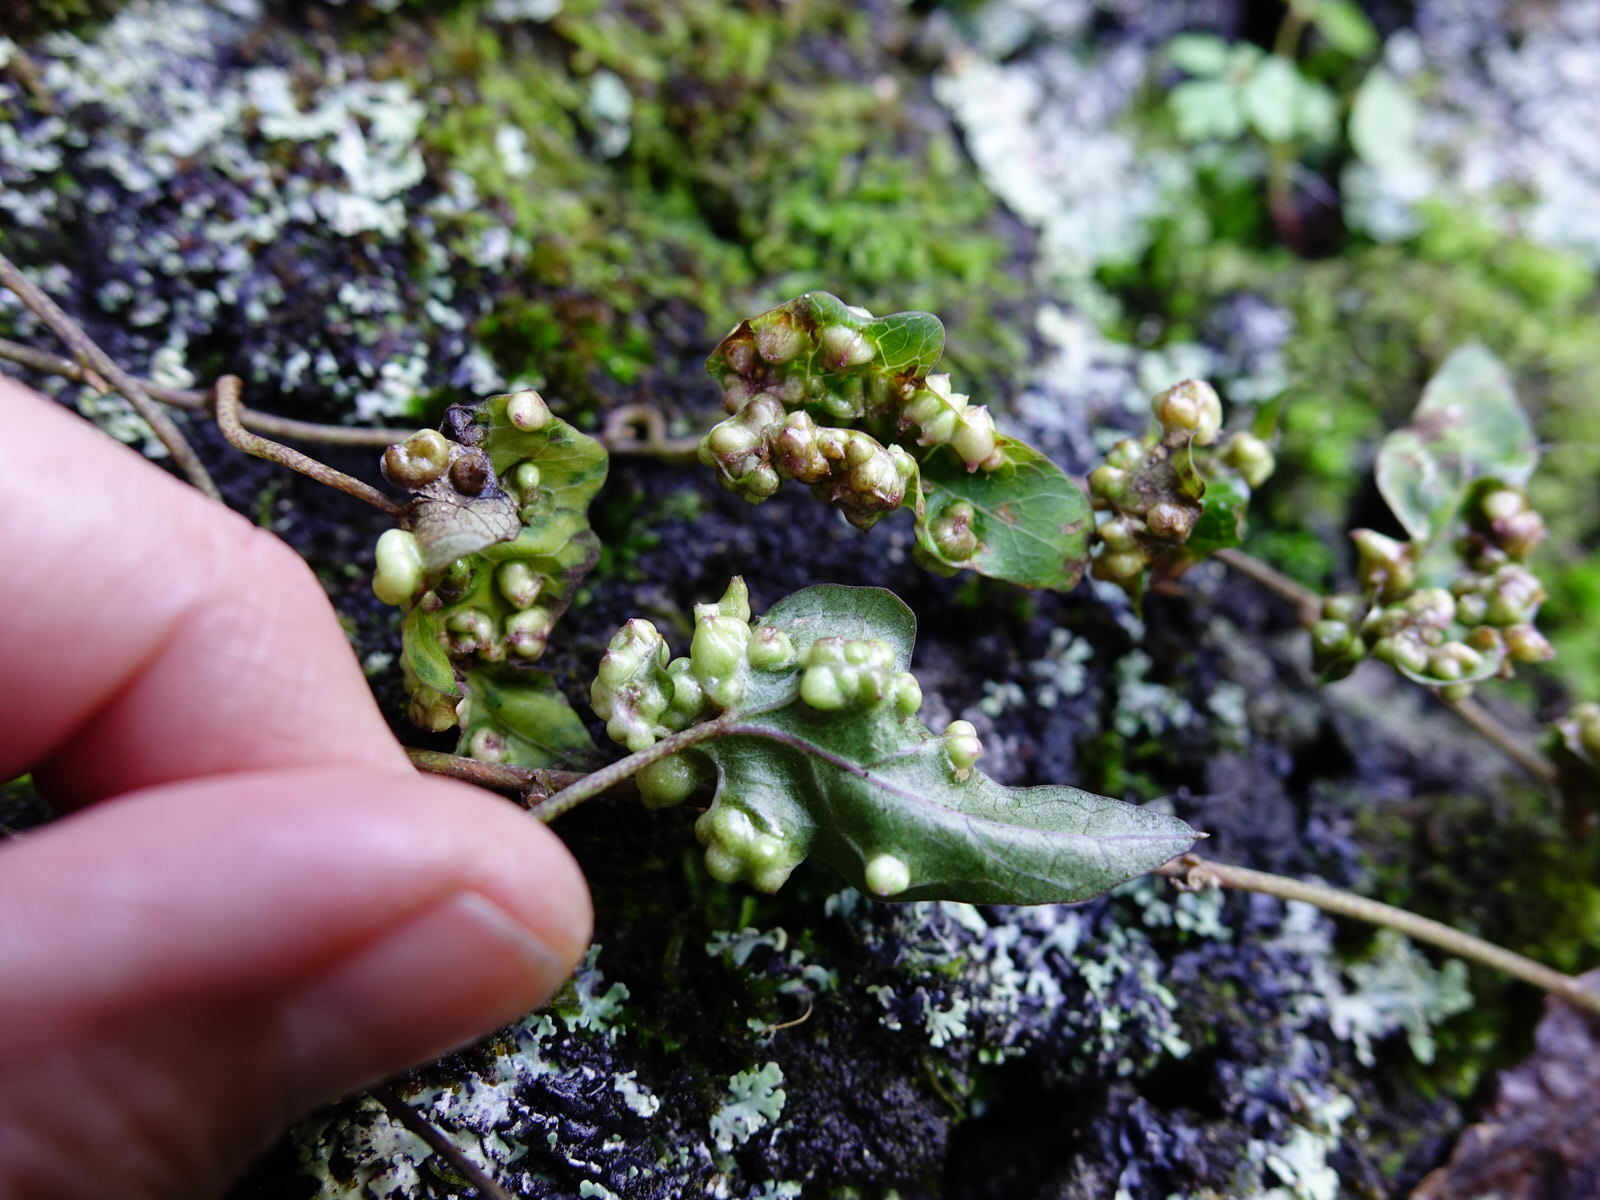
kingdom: Animalia
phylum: Arthropoda
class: Arachnida
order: Trombidiformes
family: Eriophyidae
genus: Aceria
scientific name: Aceria
